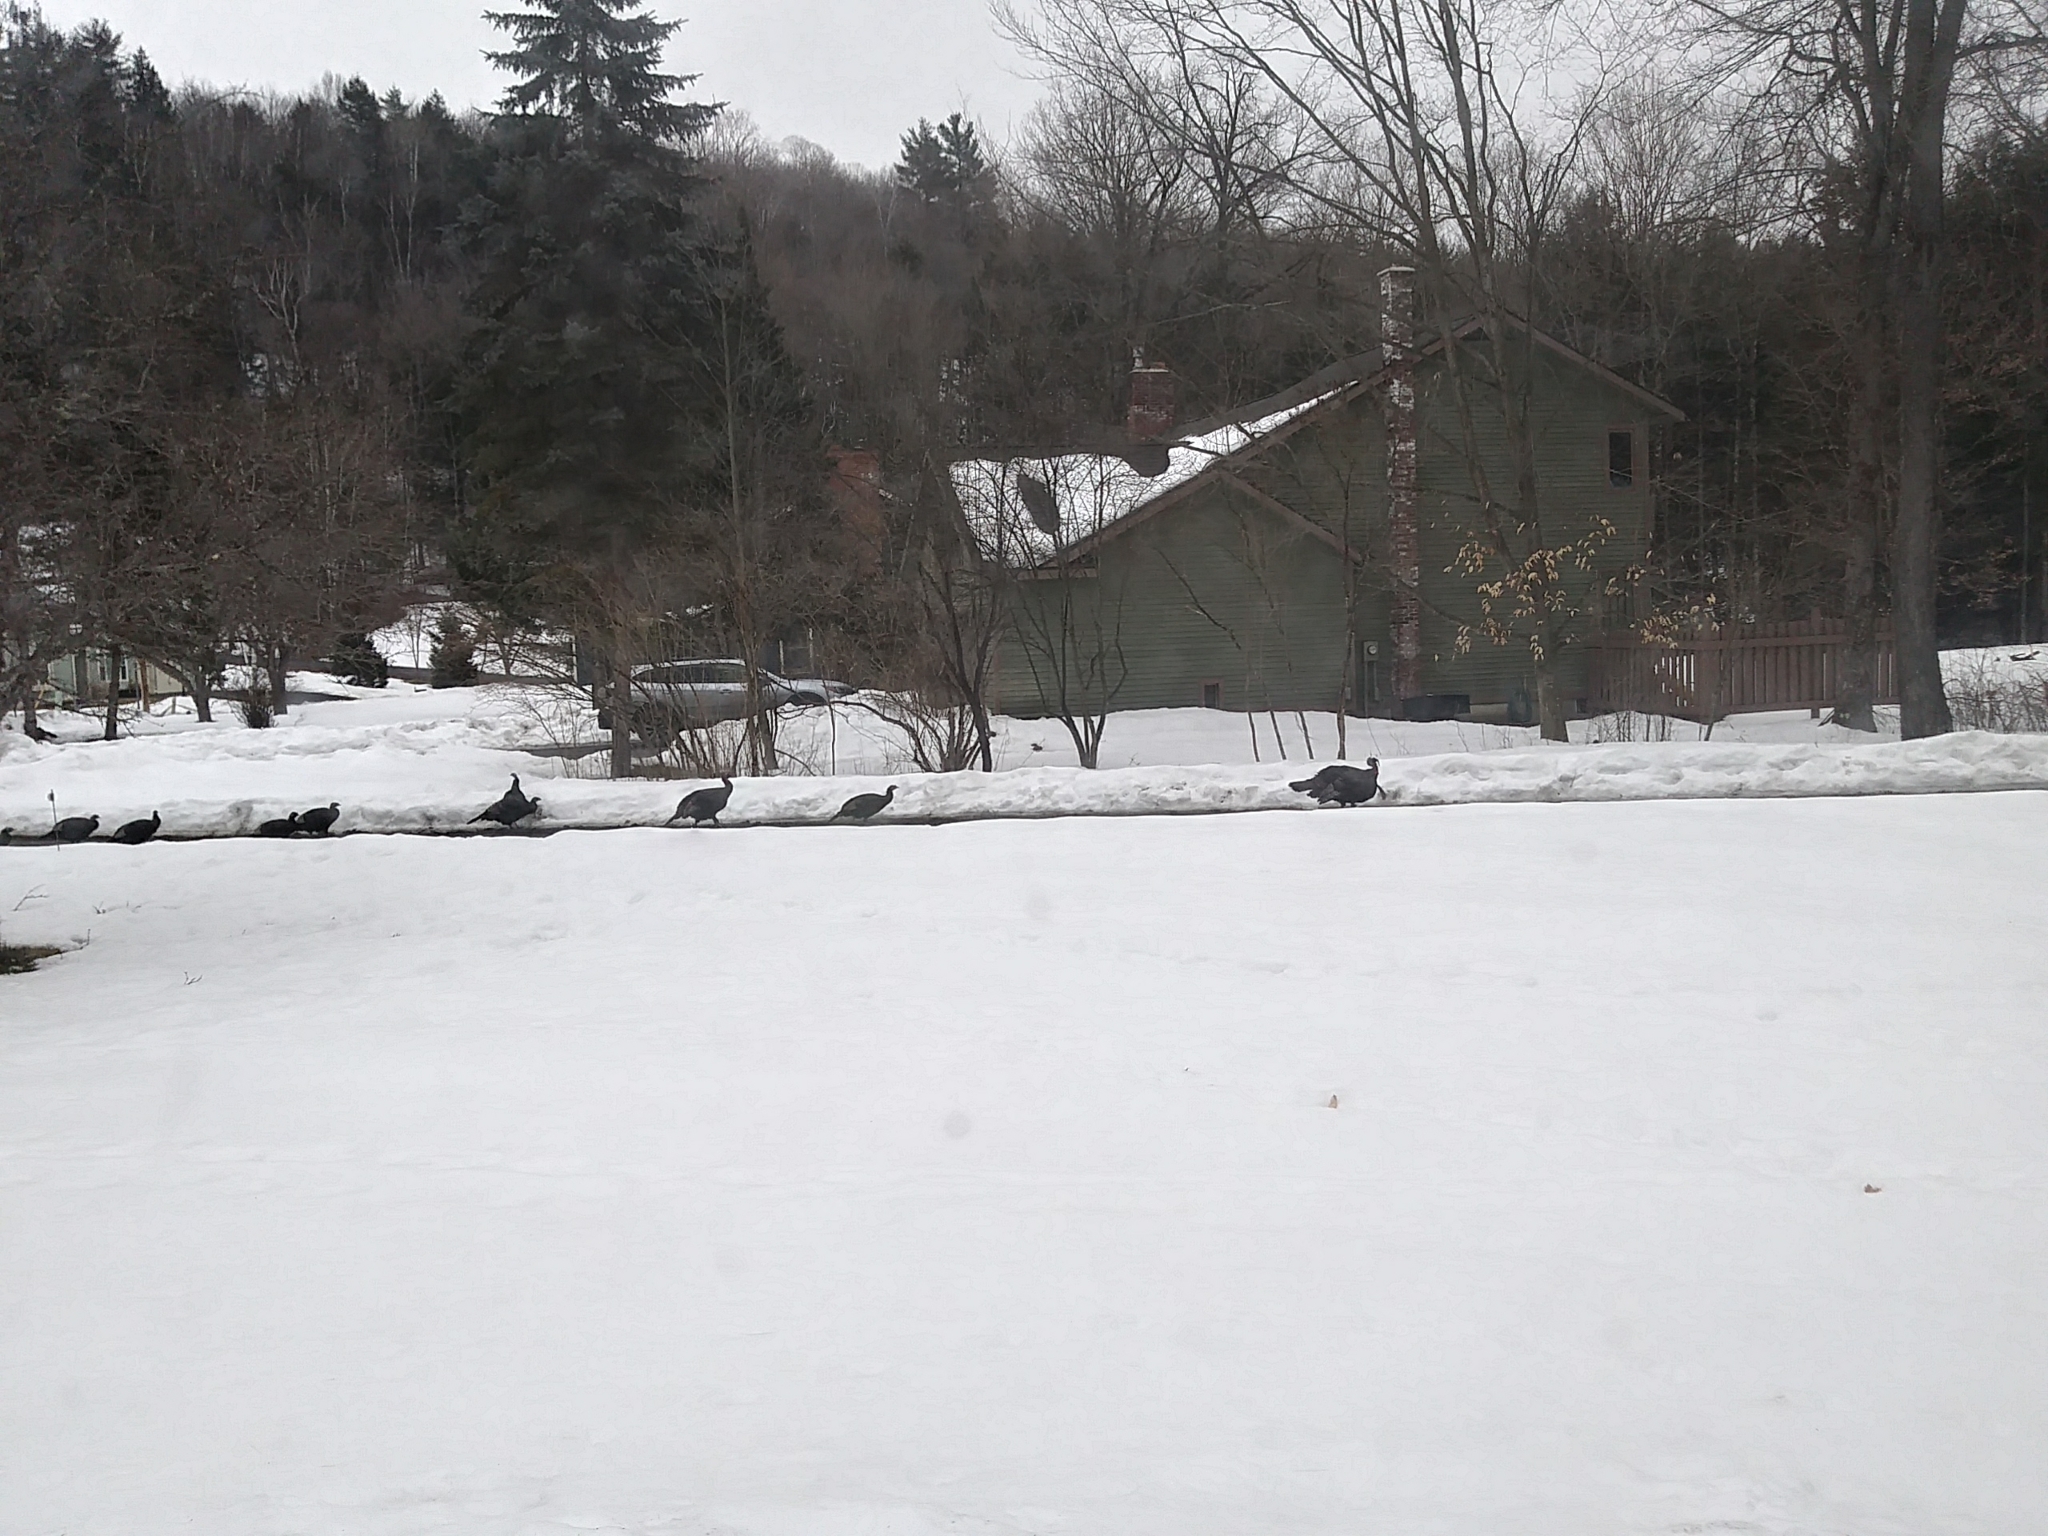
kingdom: Animalia
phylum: Chordata
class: Aves
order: Galliformes
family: Phasianidae
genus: Meleagris
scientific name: Meleagris gallopavo
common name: Wild turkey
